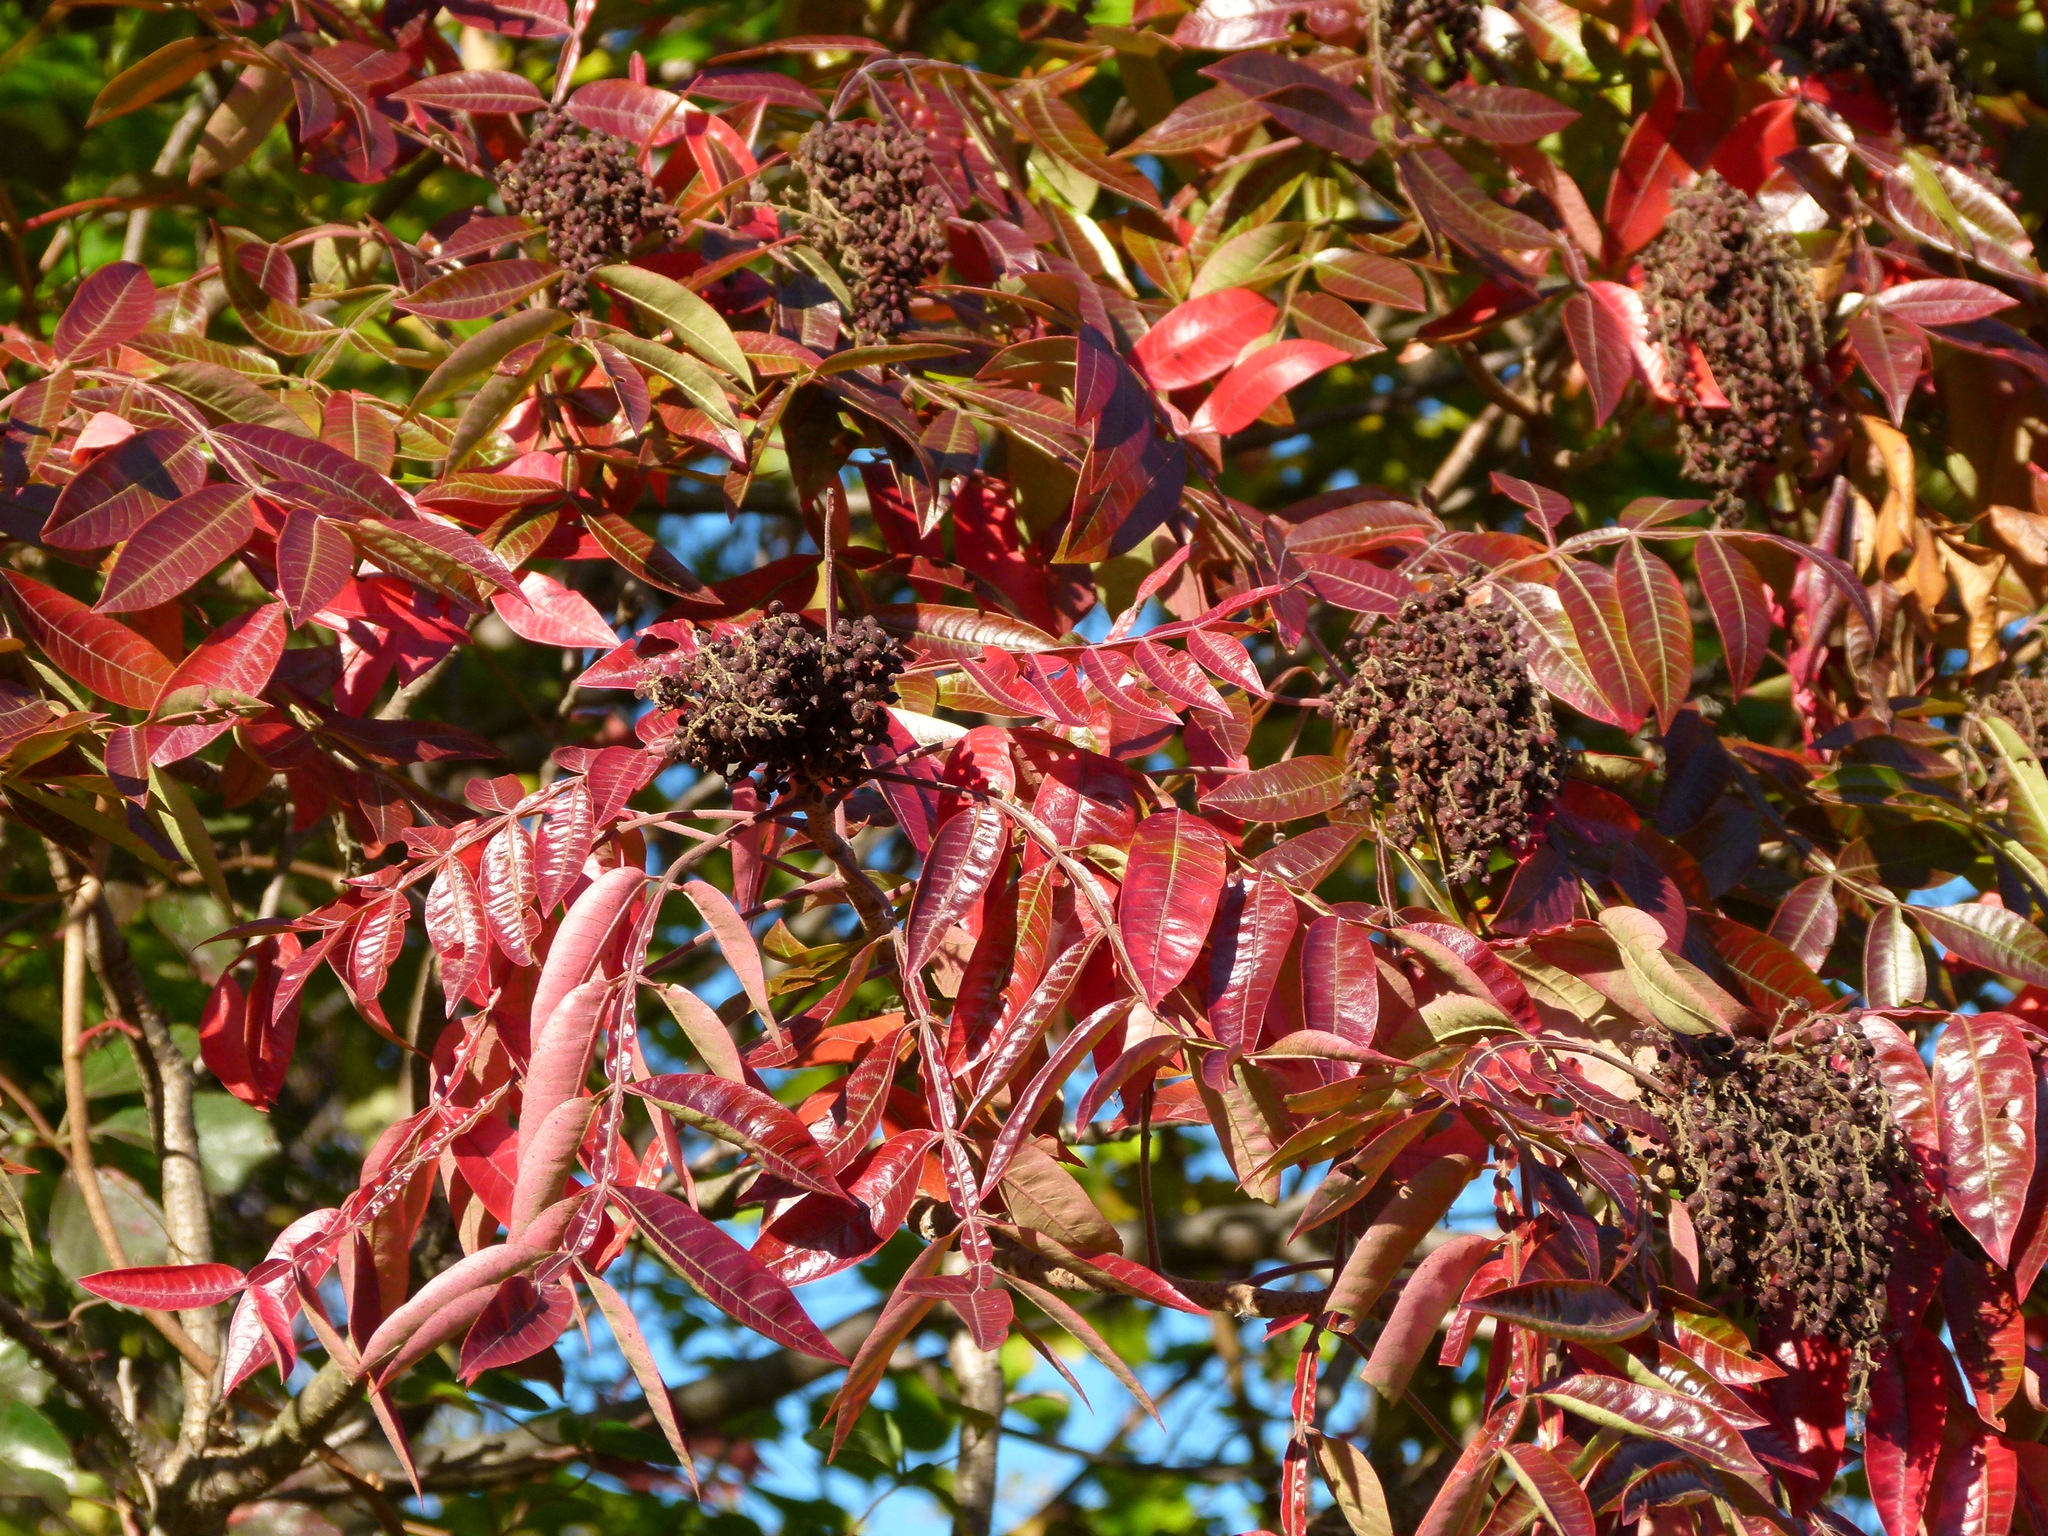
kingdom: Plantae
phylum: Tracheophyta
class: Magnoliopsida
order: Sapindales
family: Anacardiaceae
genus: Rhus
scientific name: Rhus copallina
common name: Shining sumac
